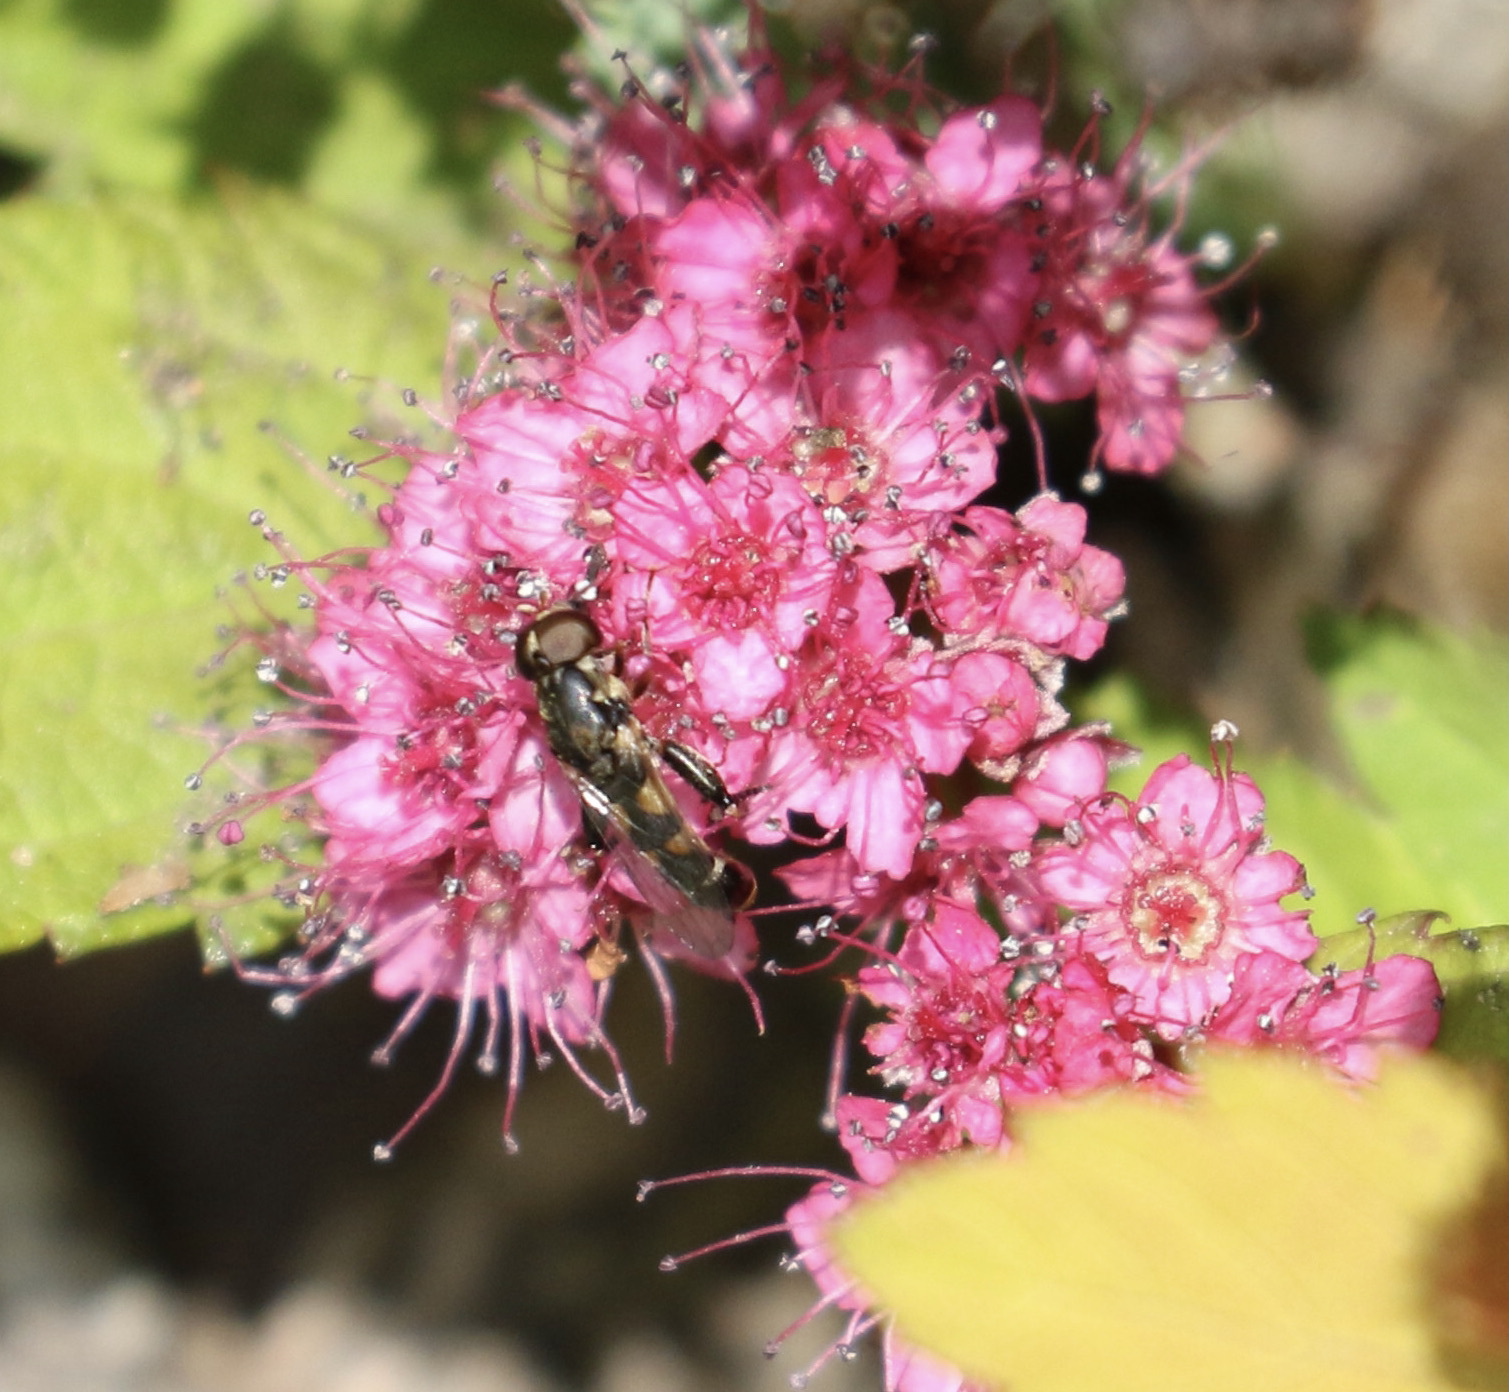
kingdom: Animalia
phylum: Arthropoda
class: Insecta
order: Diptera
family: Syrphidae
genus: Syritta
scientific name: Syritta pipiens
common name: Hover fly
